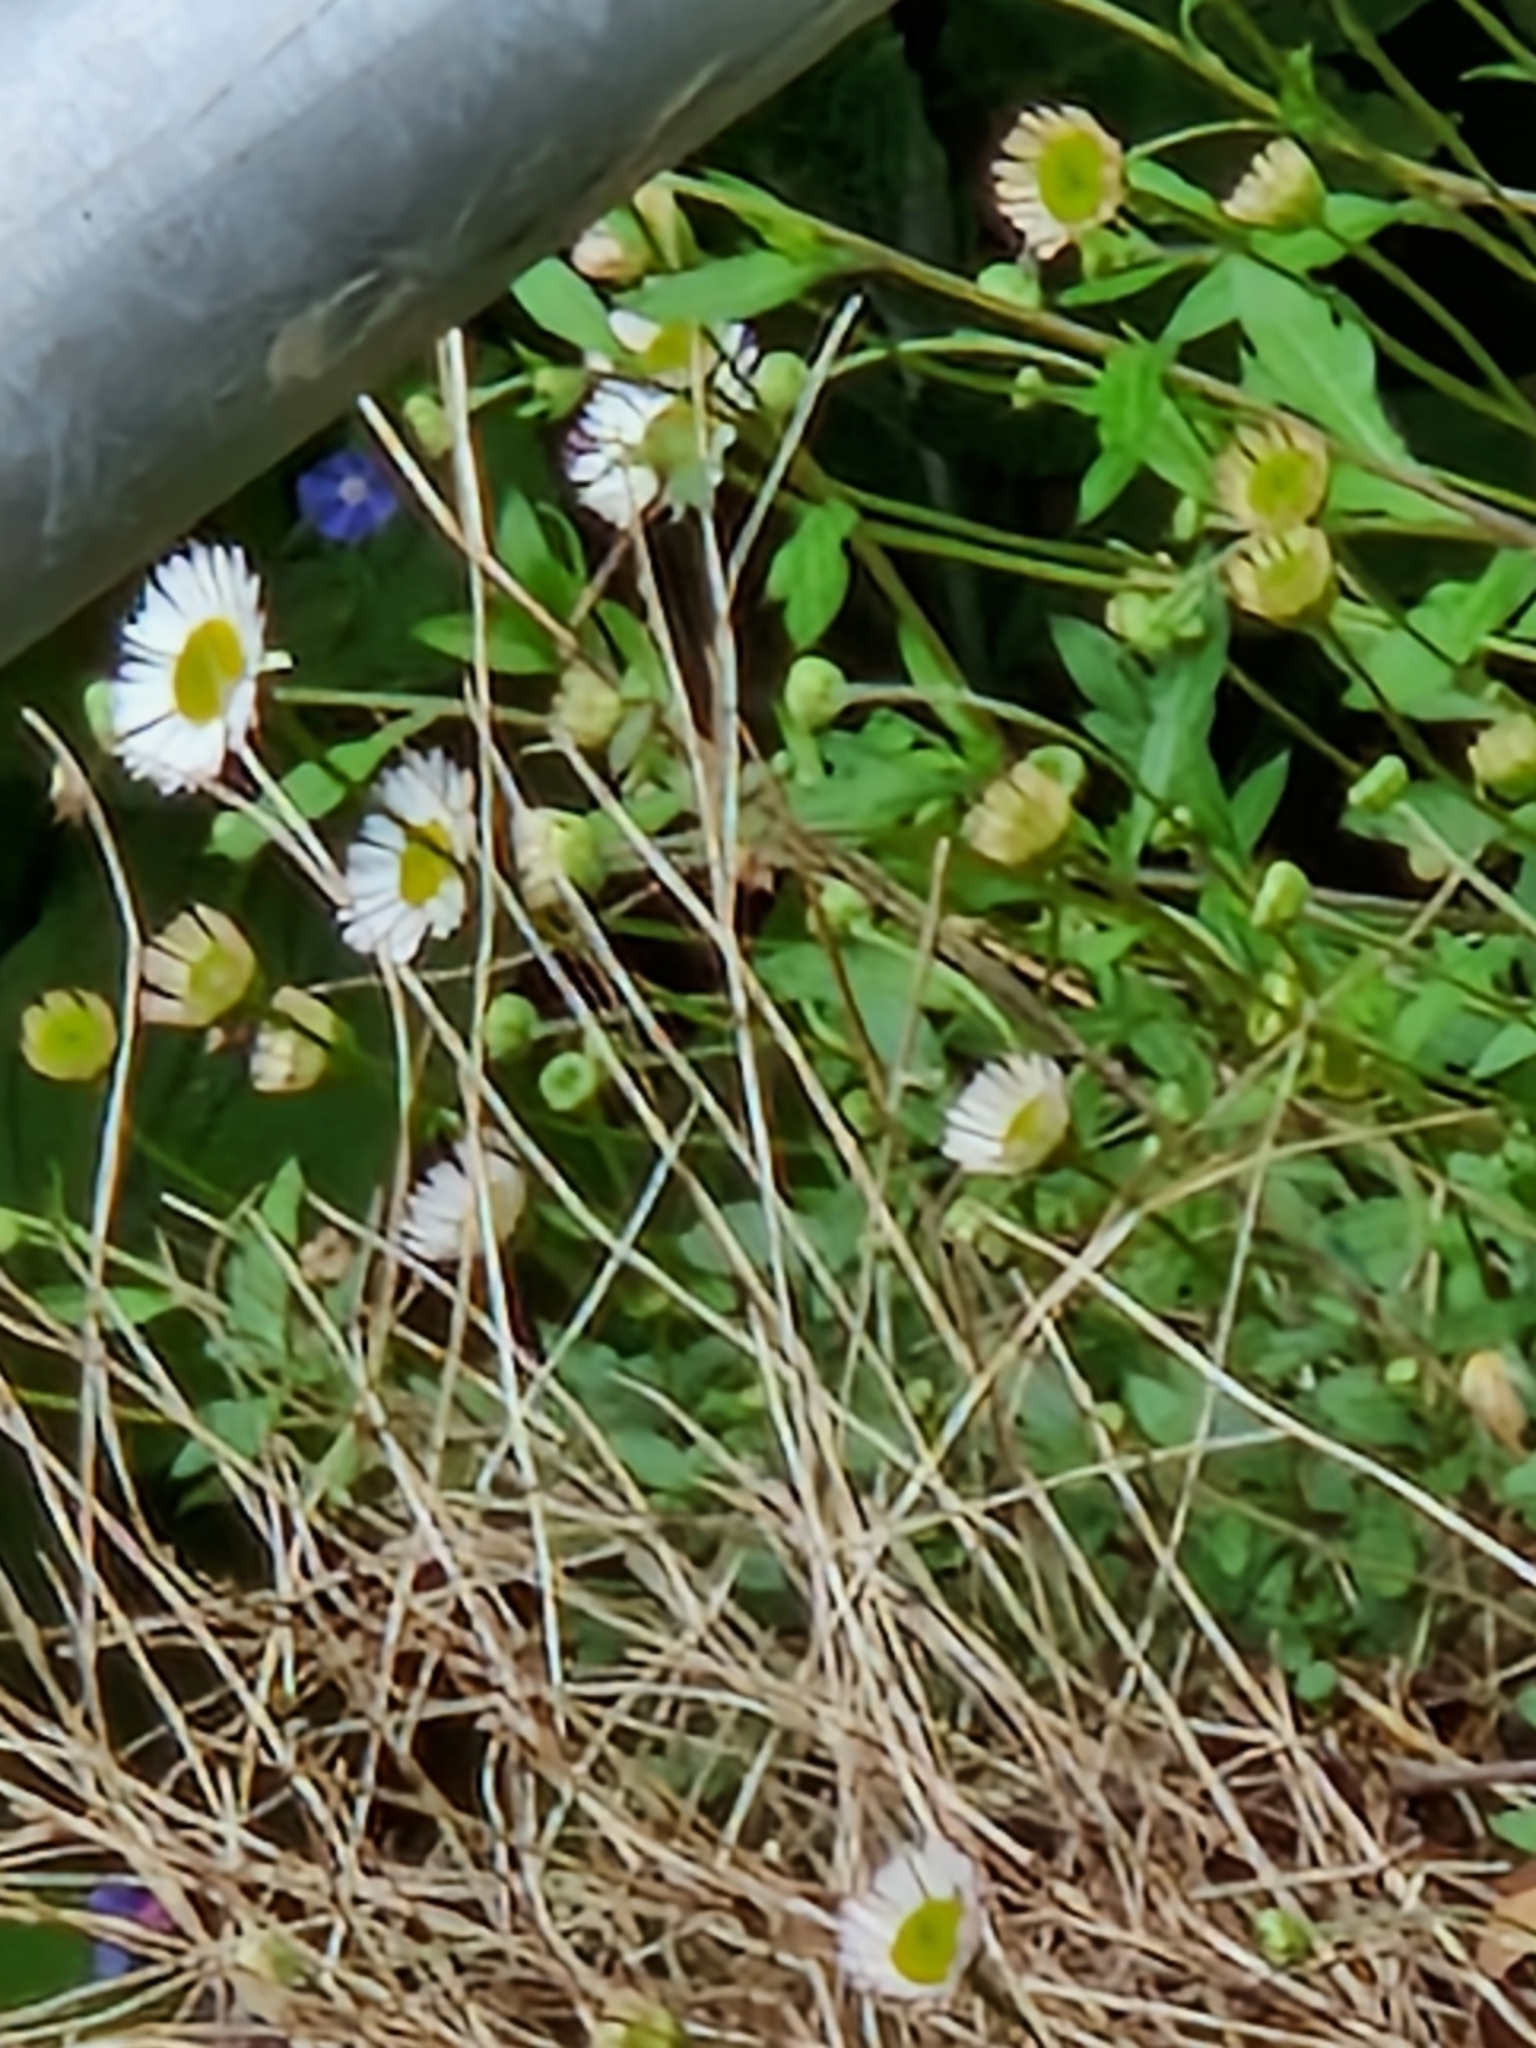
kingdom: Plantae
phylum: Tracheophyta
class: Magnoliopsida
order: Asterales
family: Asteraceae
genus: Erigeron
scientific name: Erigeron karvinskianus
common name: Mexican fleabane
